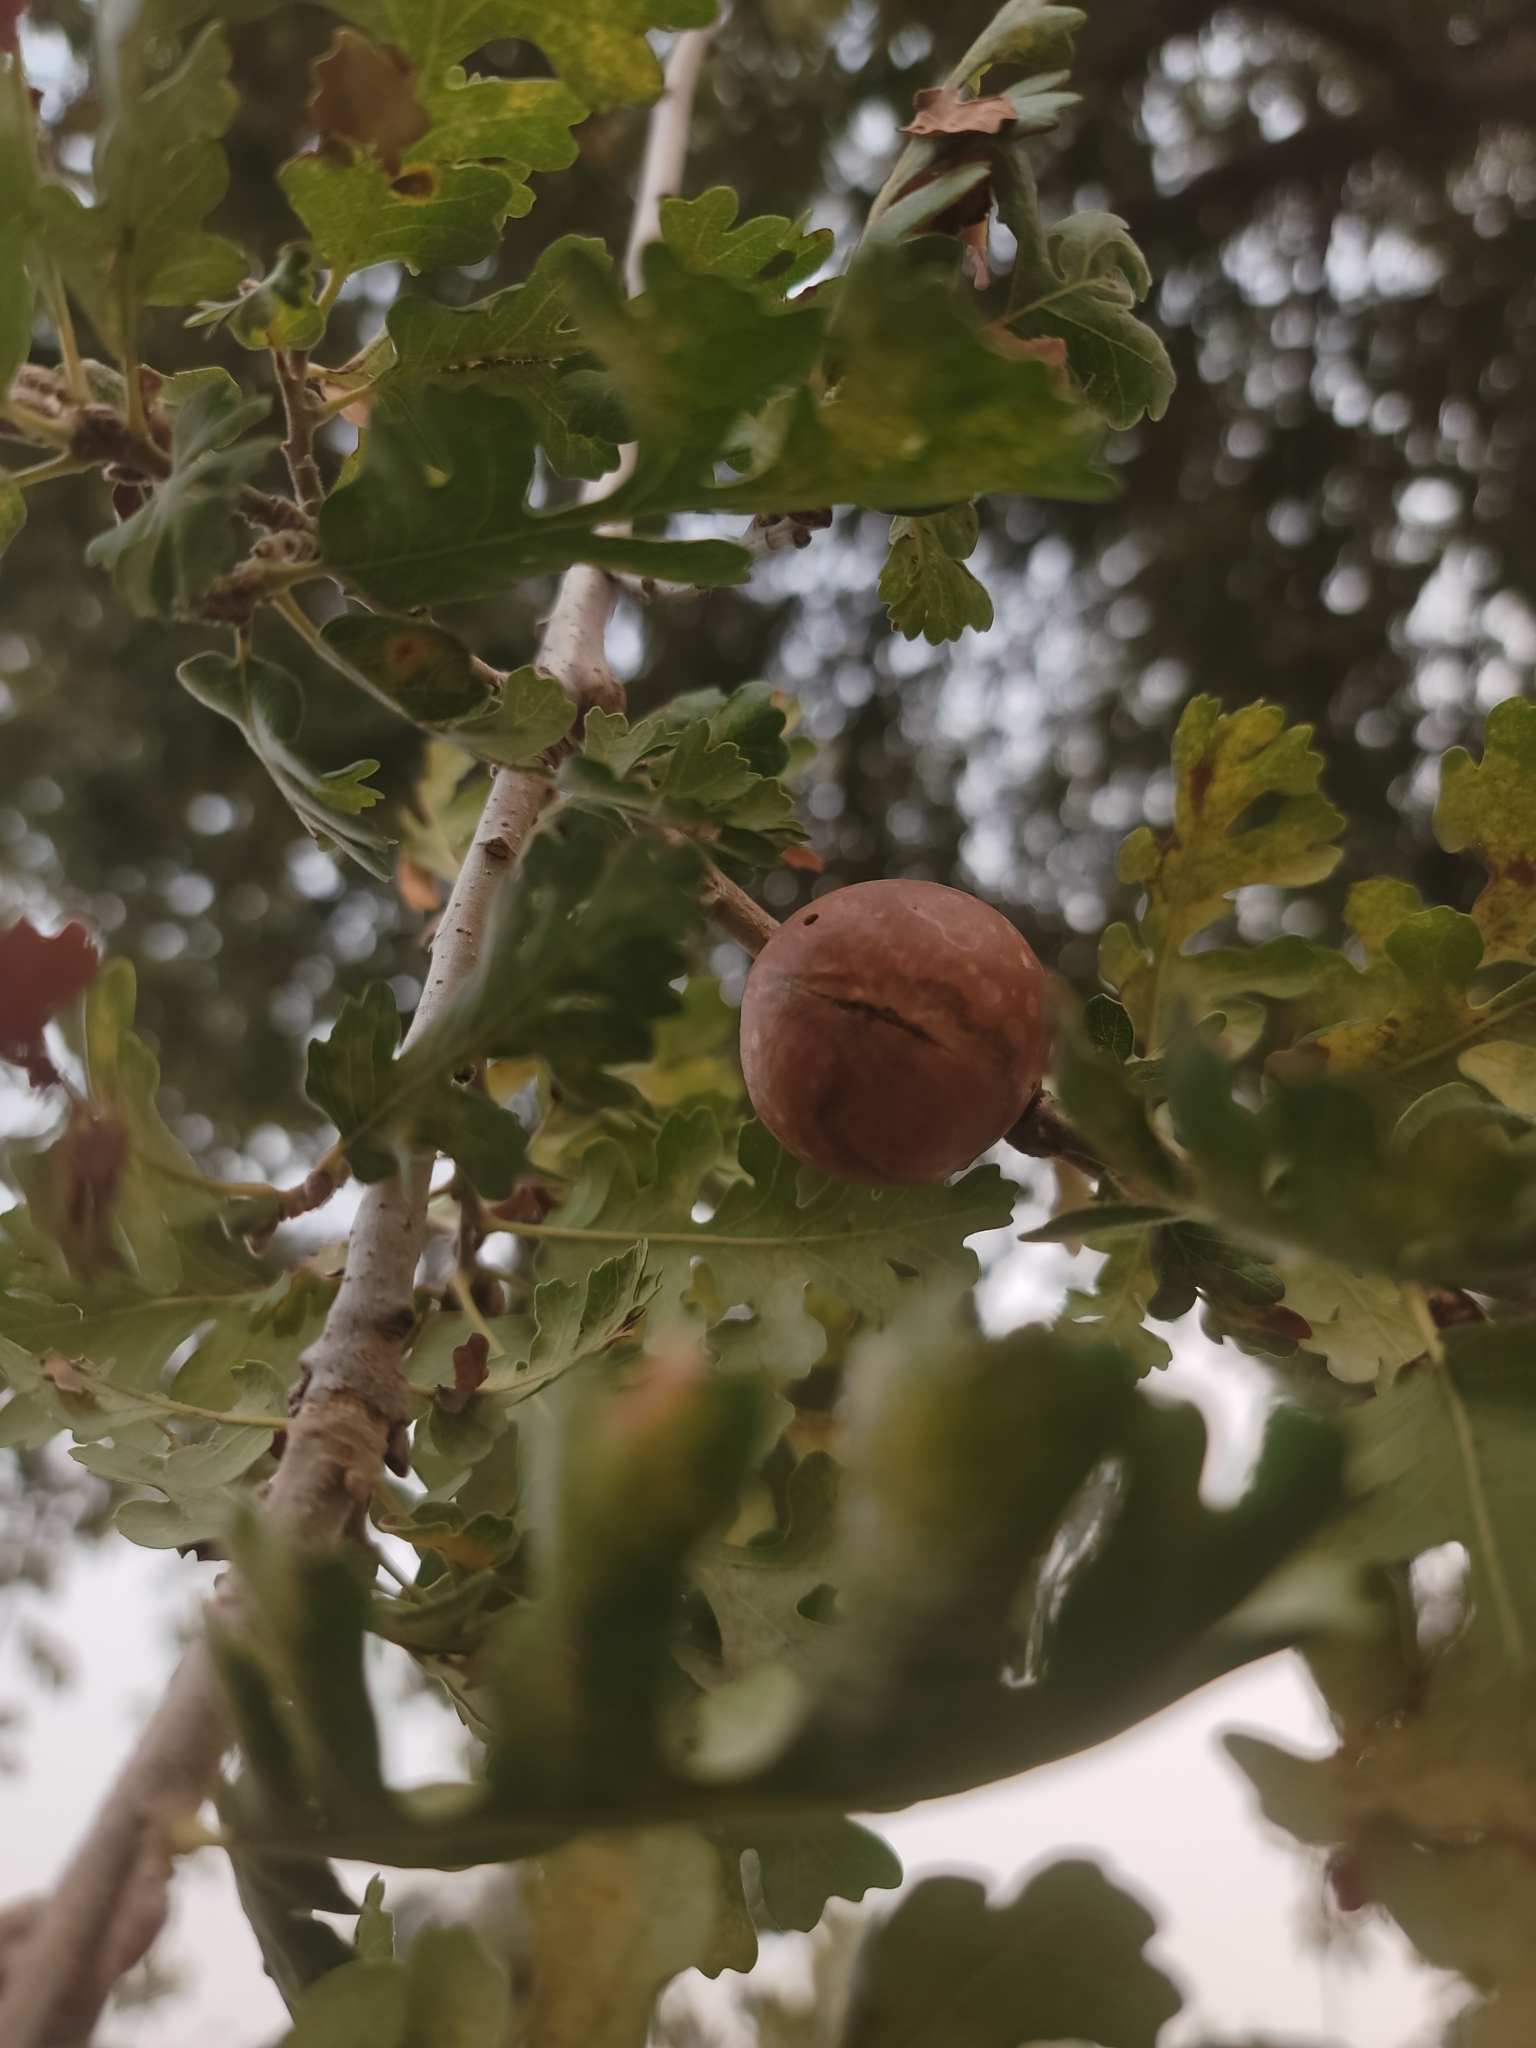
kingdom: Animalia
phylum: Arthropoda
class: Insecta
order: Hymenoptera
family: Cynipidae
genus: Andricus
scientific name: Andricus quercuscalifornicus
